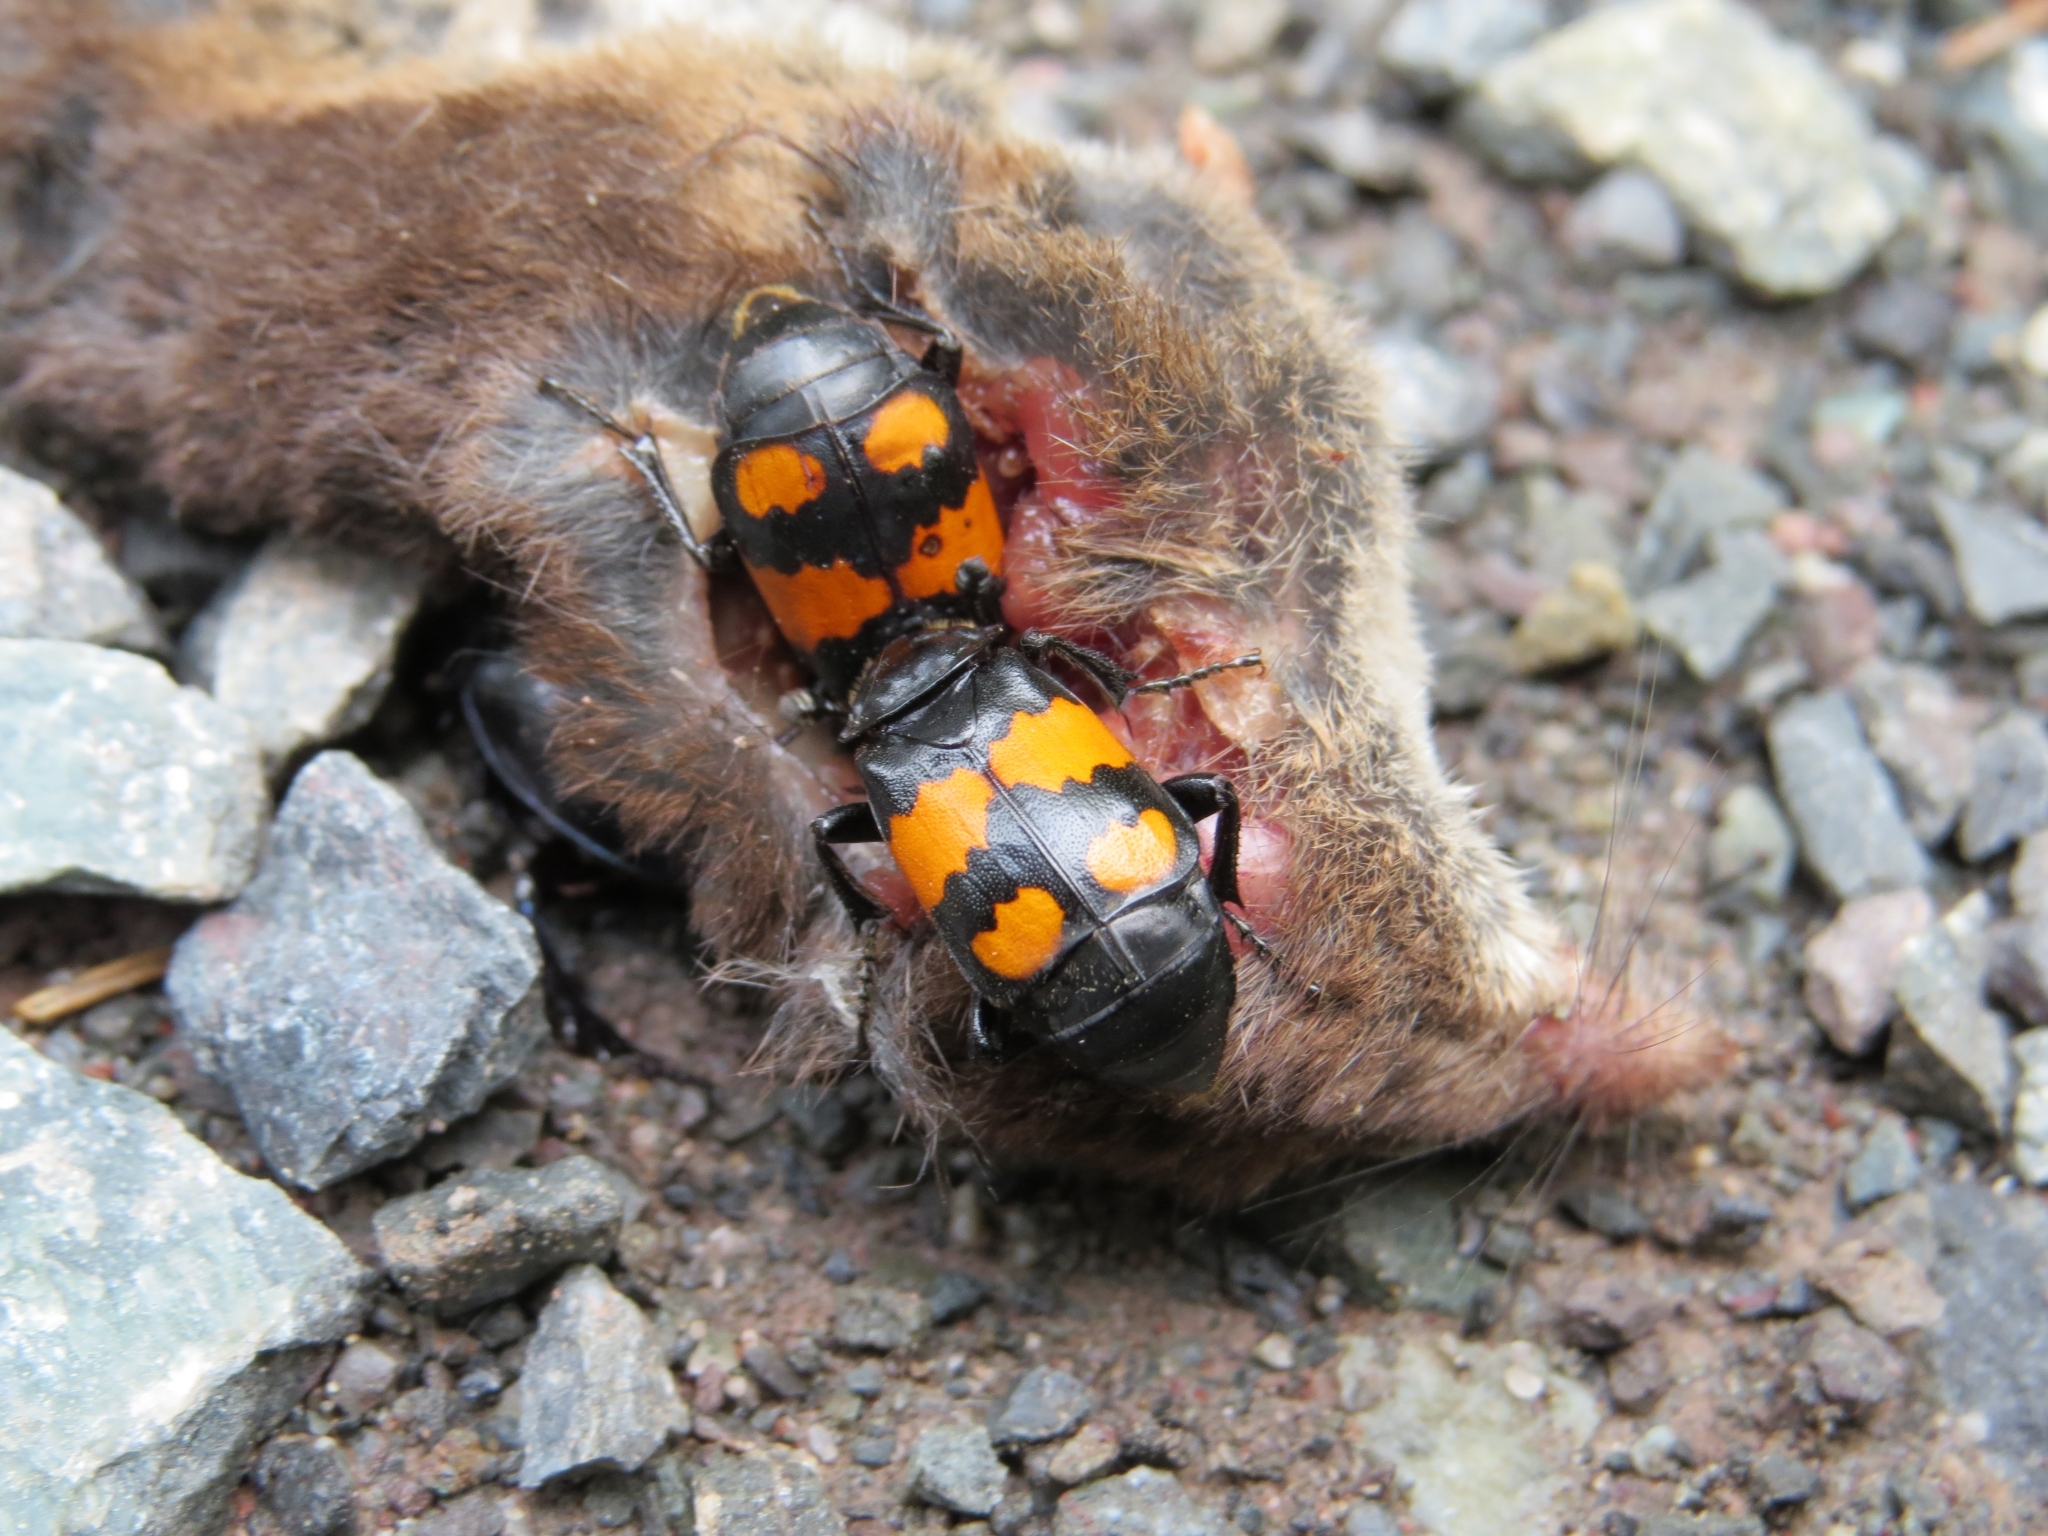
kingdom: Animalia
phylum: Arthropoda
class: Insecta
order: Coleoptera
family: Staphylinidae
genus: Nicrophorus
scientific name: Nicrophorus vespilloides
